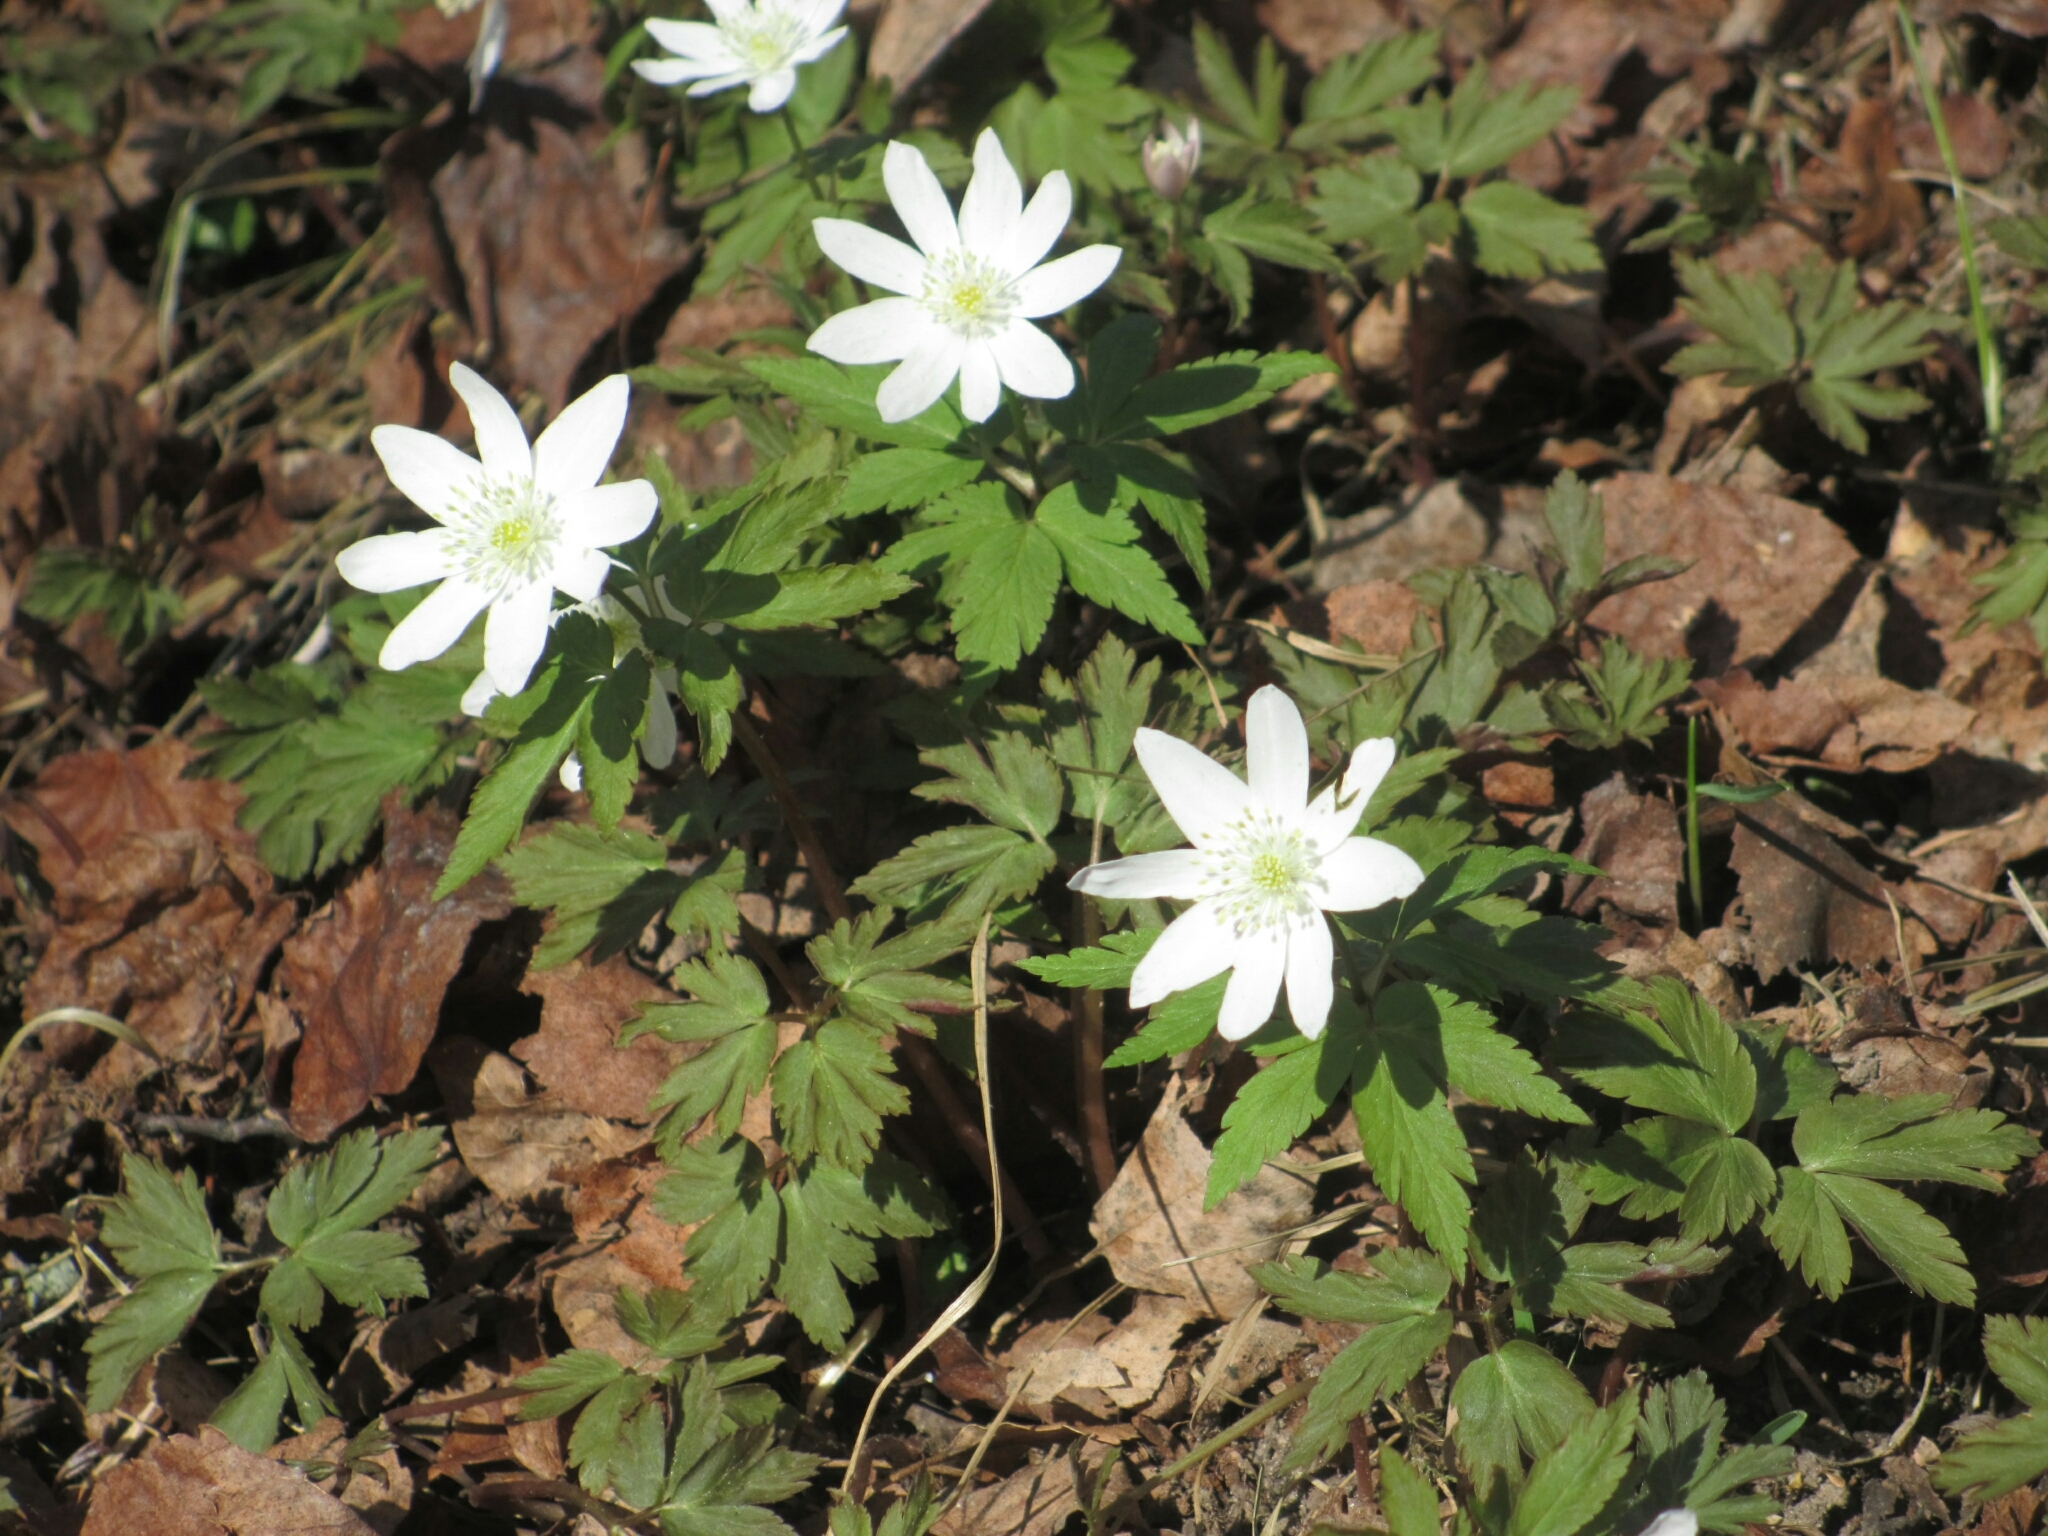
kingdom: Plantae
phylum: Tracheophyta
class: Magnoliopsida
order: Ranunculales
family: Ranunculaceae
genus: Anemone
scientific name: Anemone altaica
